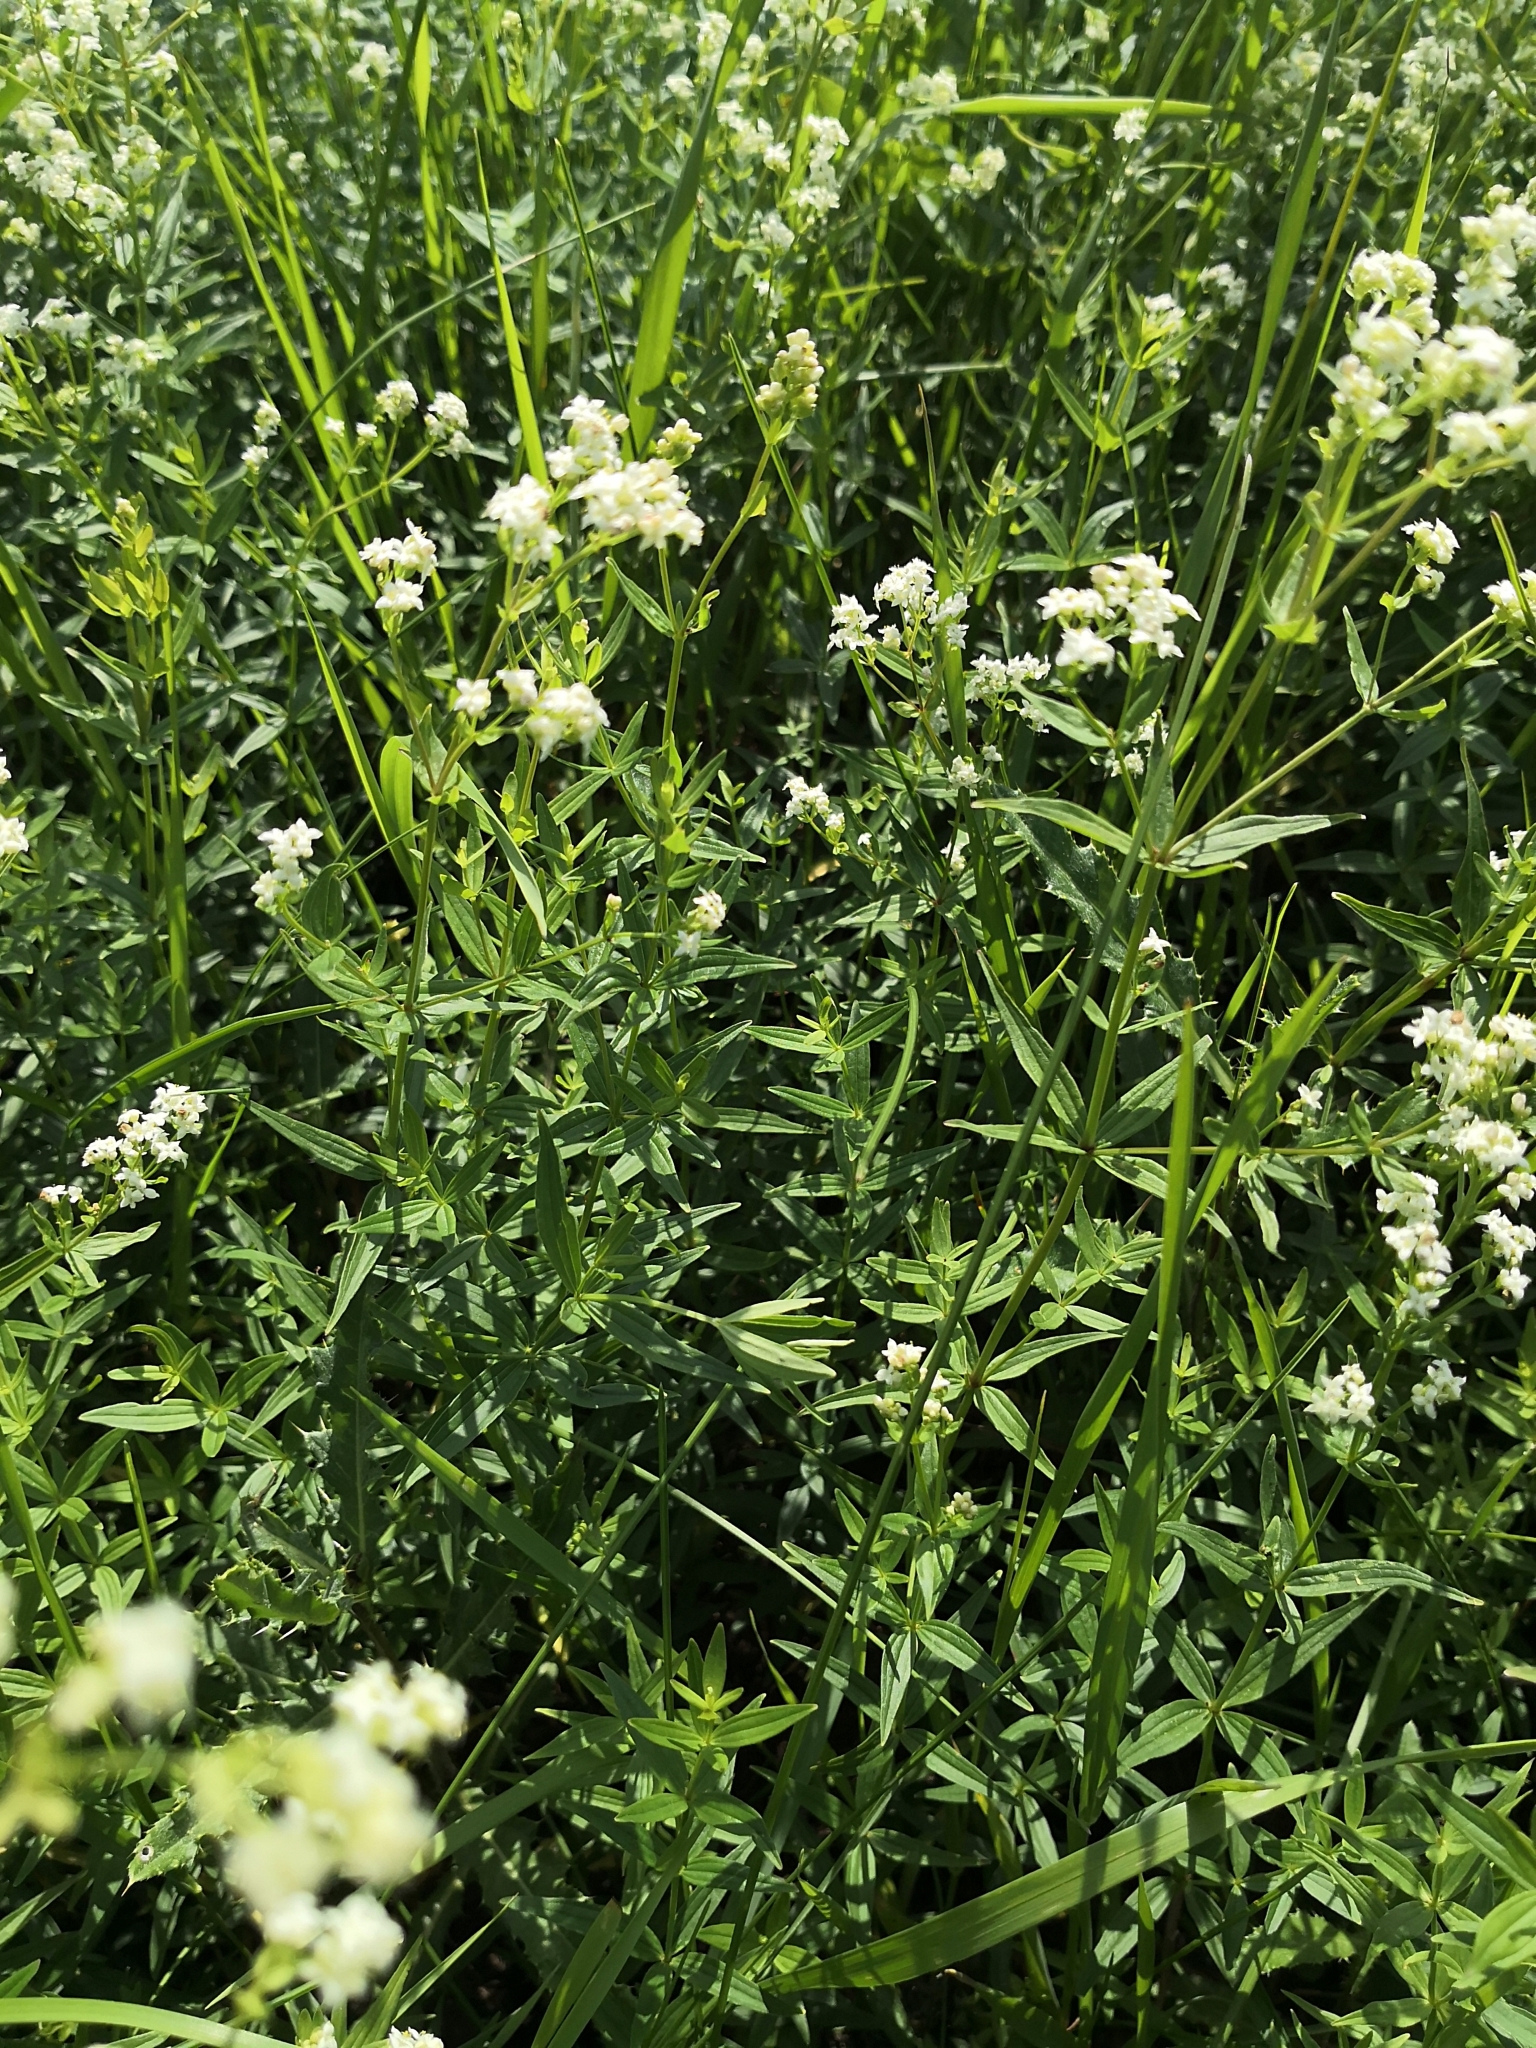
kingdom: Plantae
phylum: Tracheophyta
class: Magnoliopsida
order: Gentianales
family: Rubiaceae
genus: Galium
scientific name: Galium boreale
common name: Northern bedstraw
